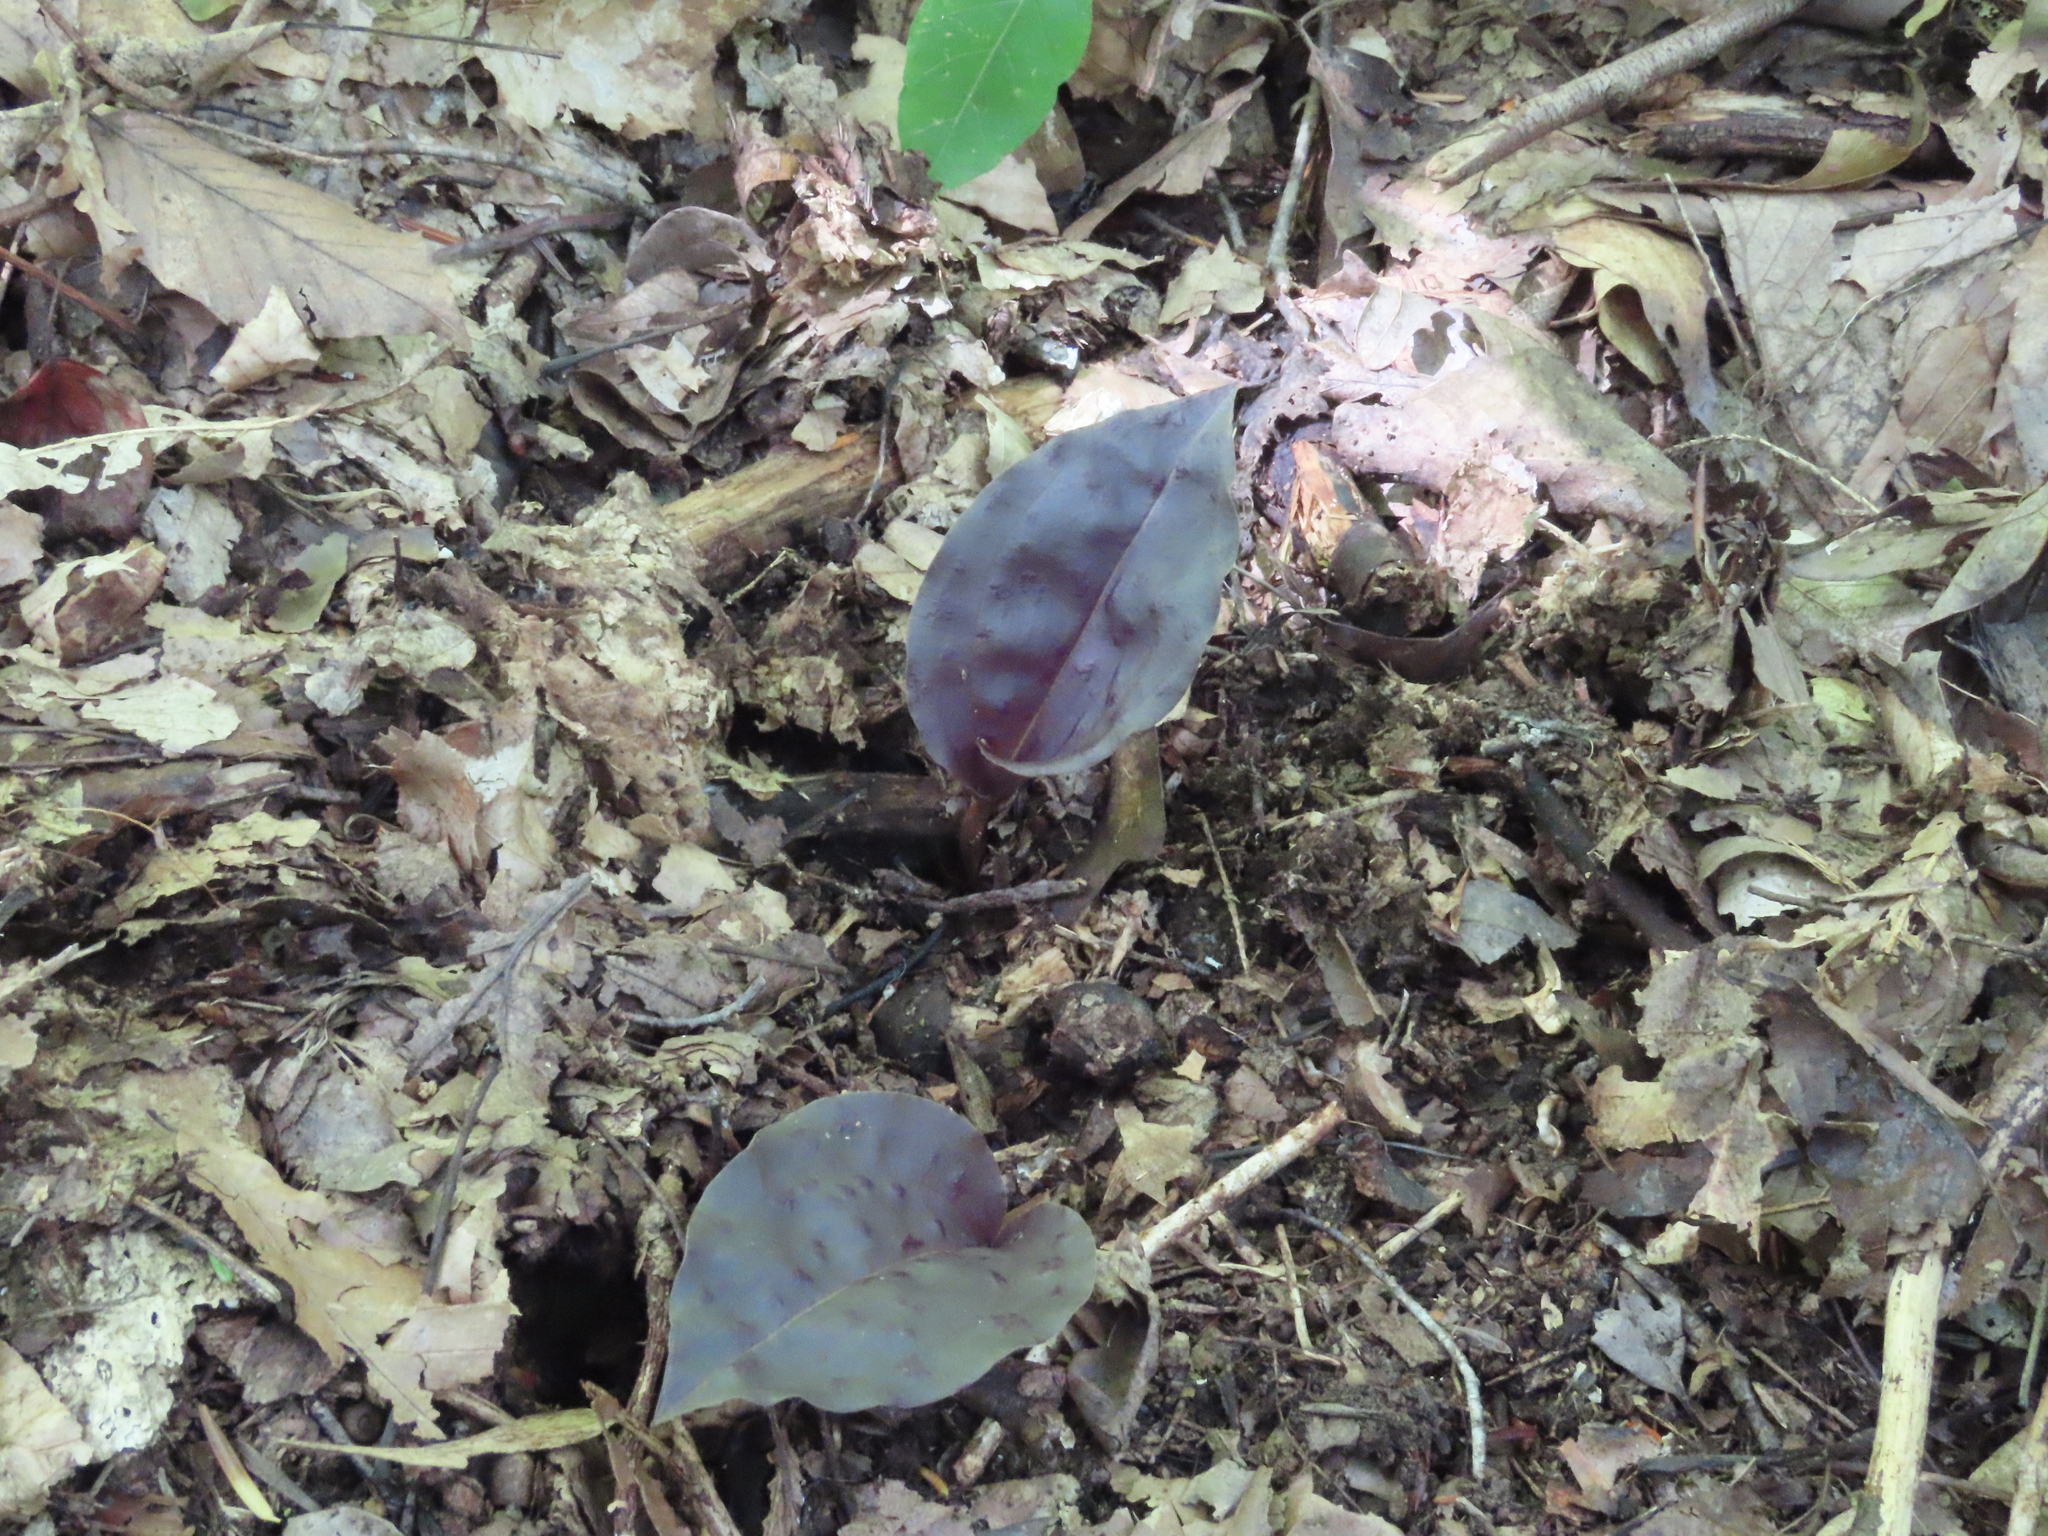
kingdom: Plantae
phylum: Tracheophyta
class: Liliopsida
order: Asparagales
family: Orchidaceae
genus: Tipularia
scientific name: Tipularia discolor
